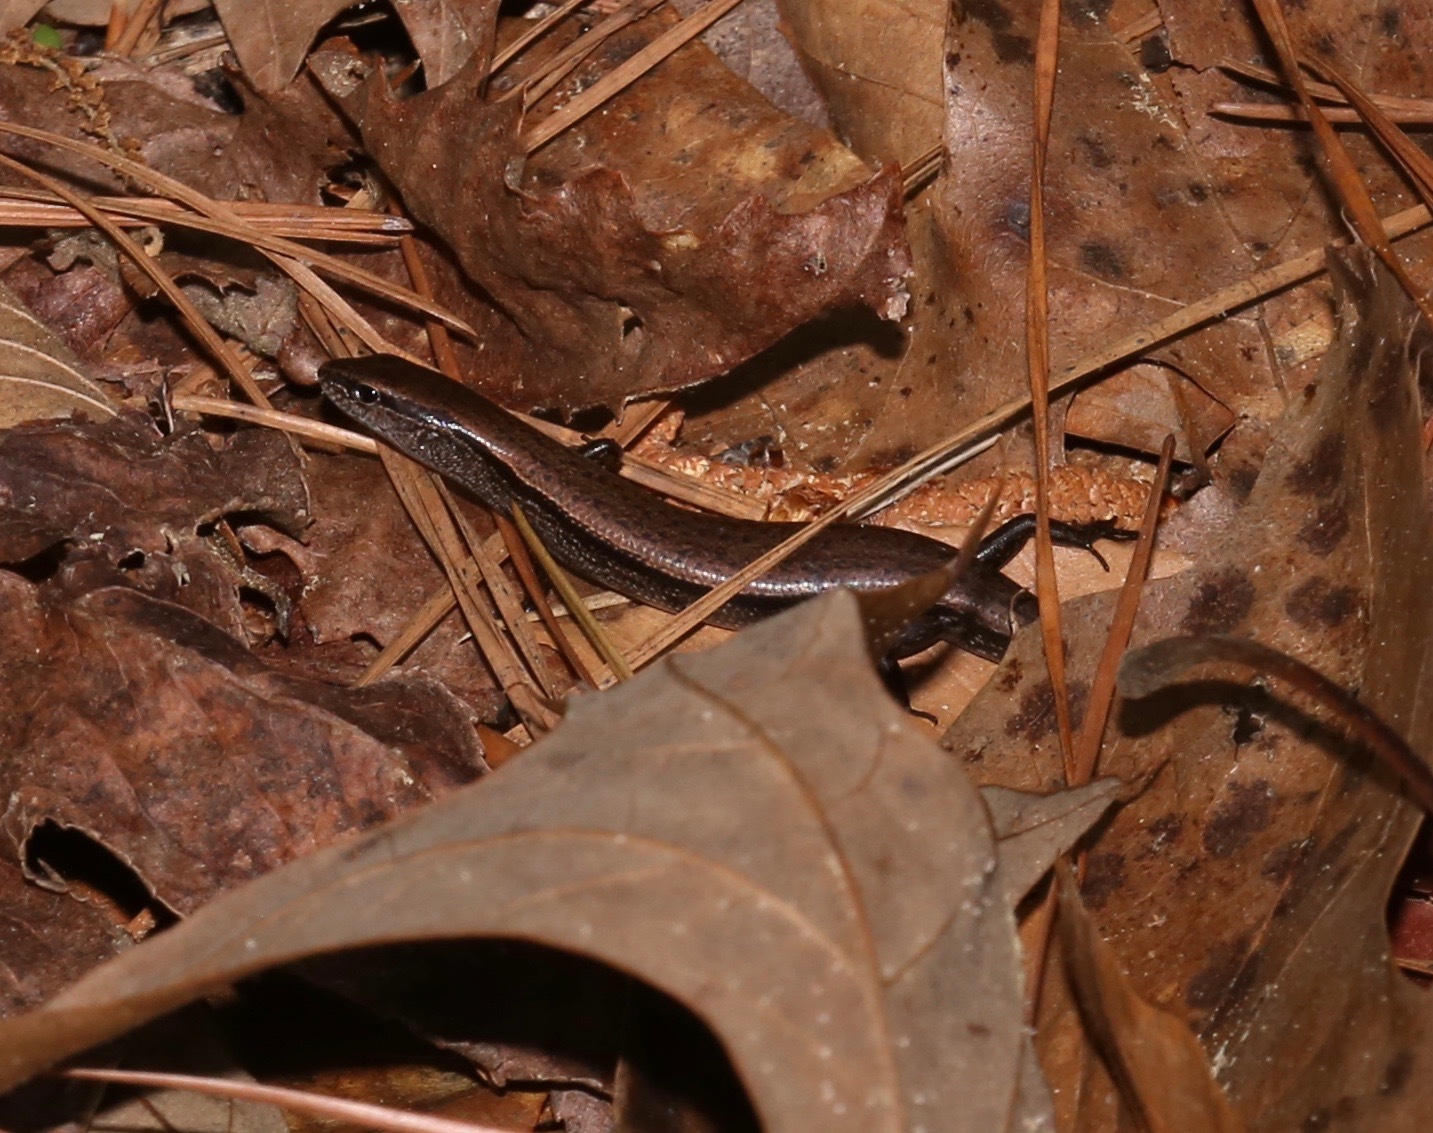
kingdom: Animalia
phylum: Chordata
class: Squamata
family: Scincidae
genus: Scincella
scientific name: Scincella lateralis
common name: Ground skink
